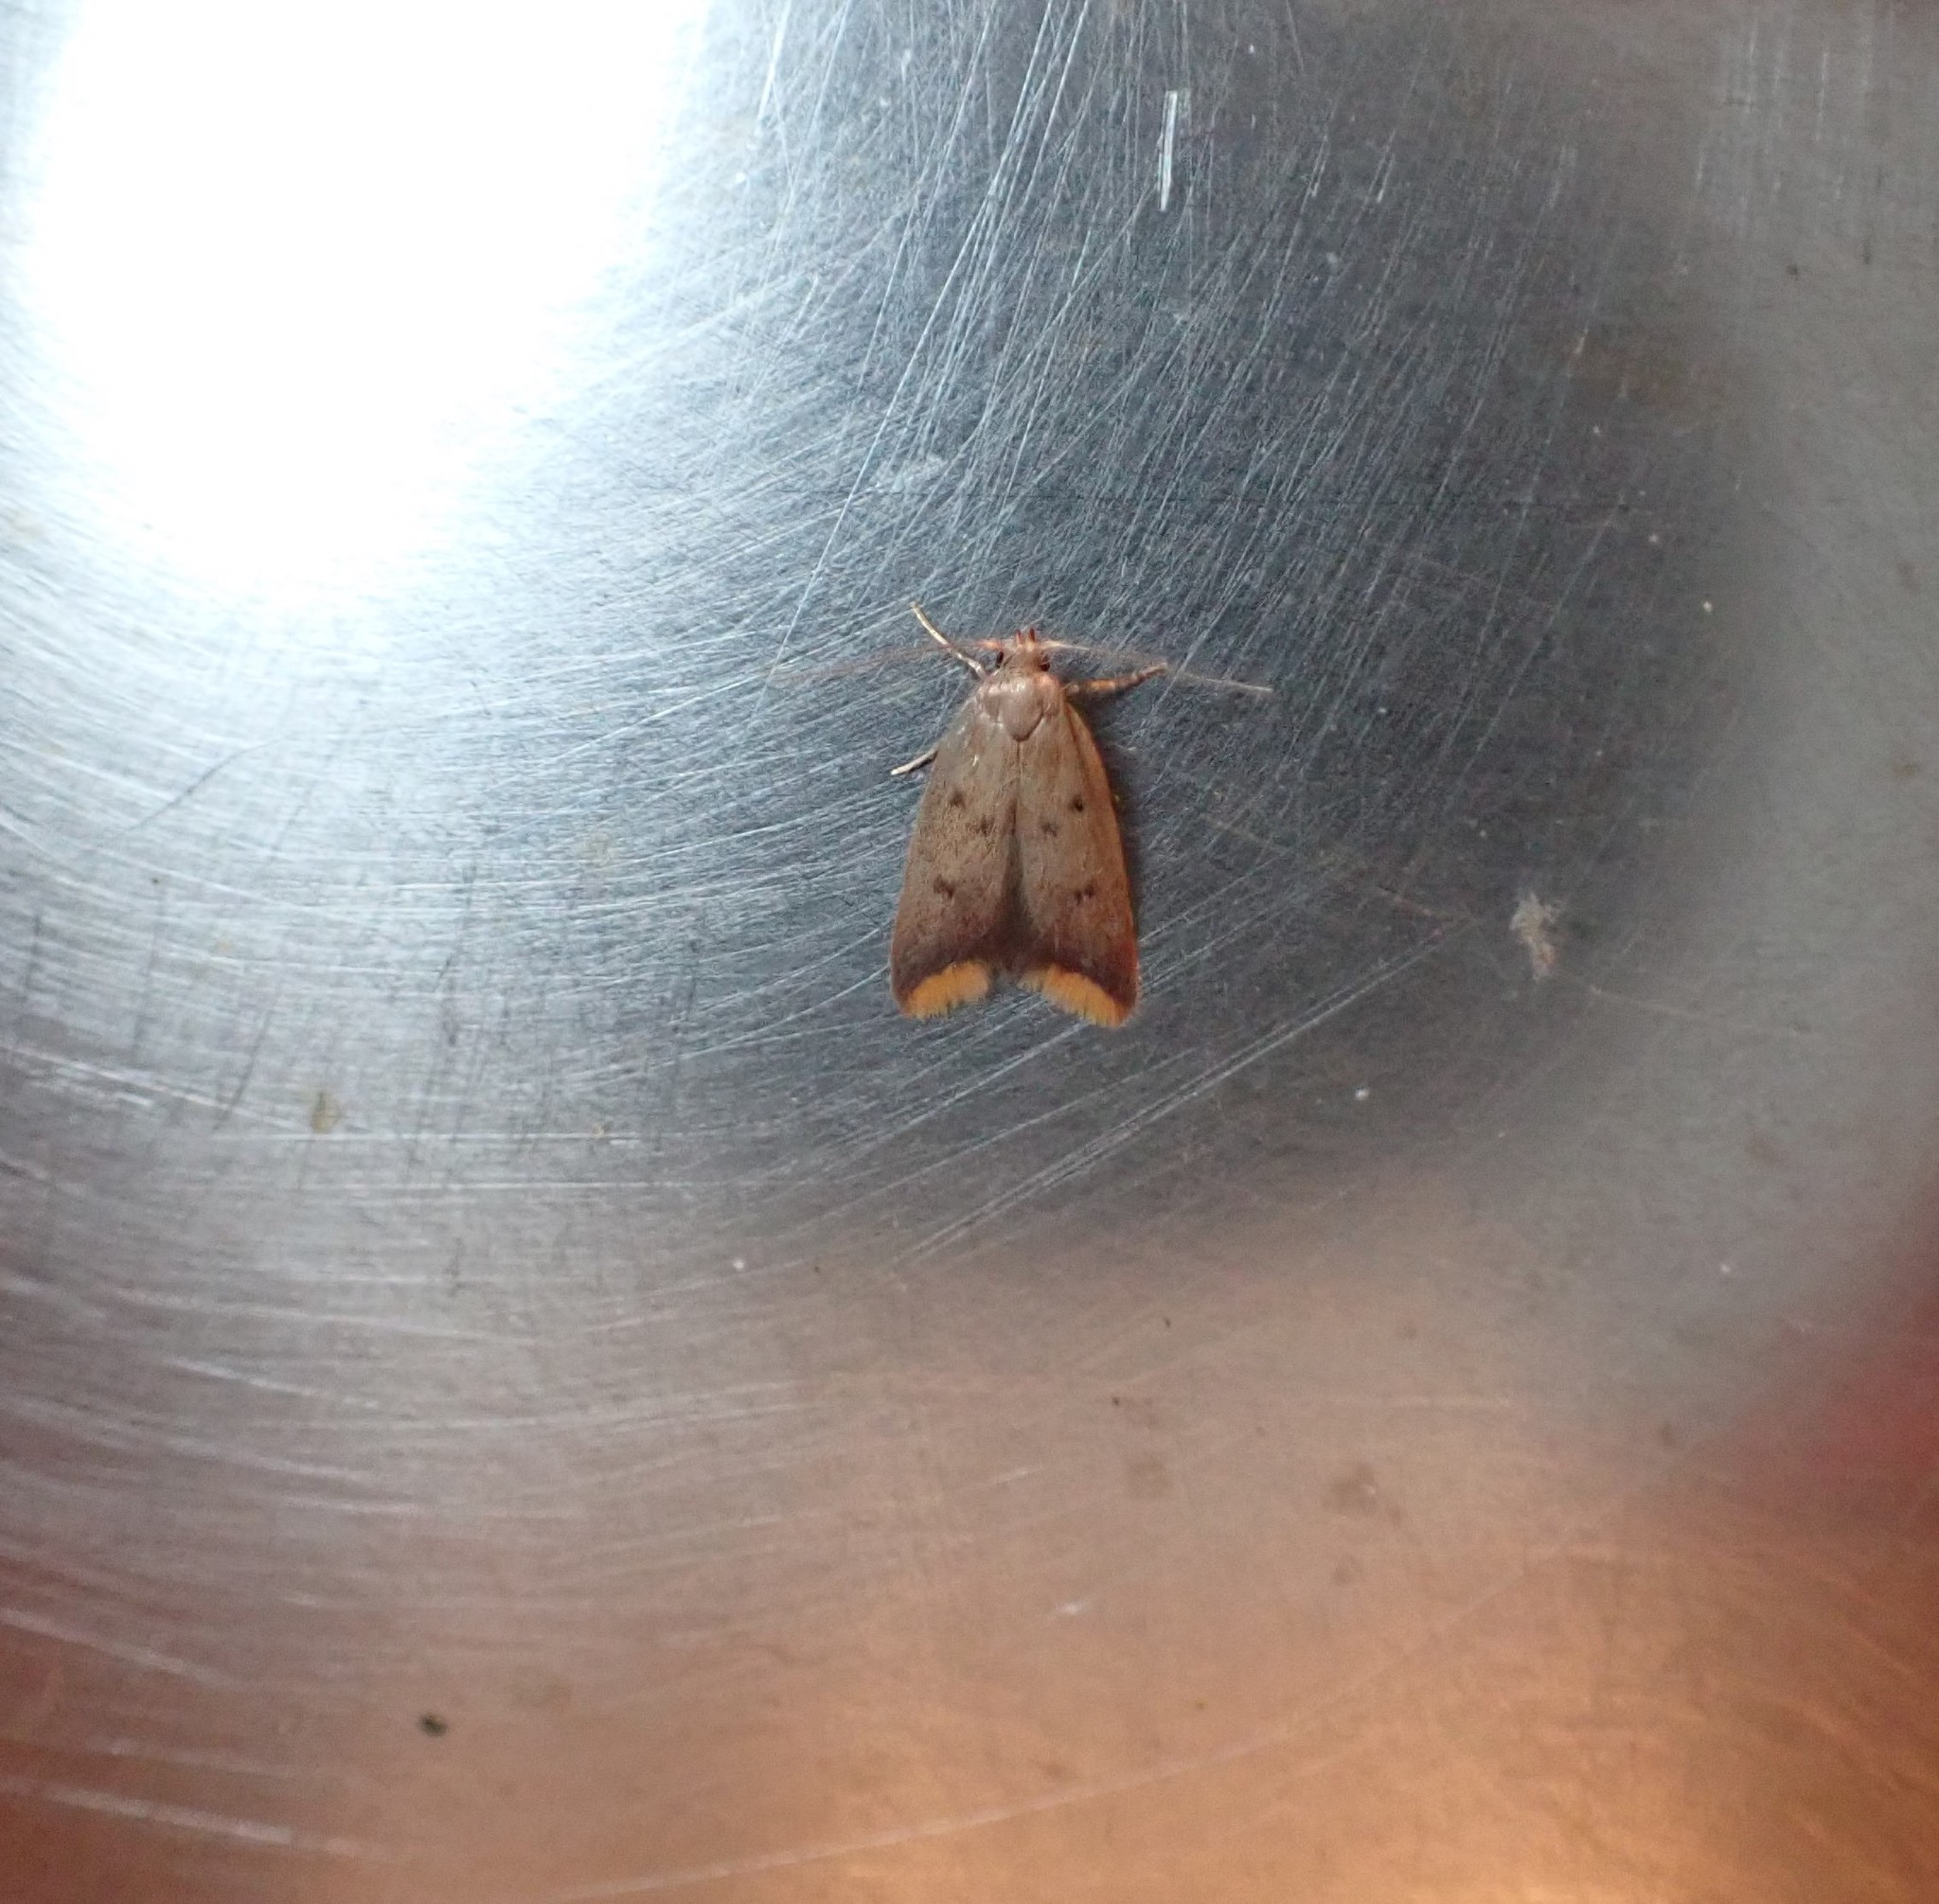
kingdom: Animalia
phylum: Arthropoda
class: Insecta
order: Lepidoptera
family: Oecophoridae
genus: Tachystola
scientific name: Tachystola acroxantha
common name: Ruddy streak
